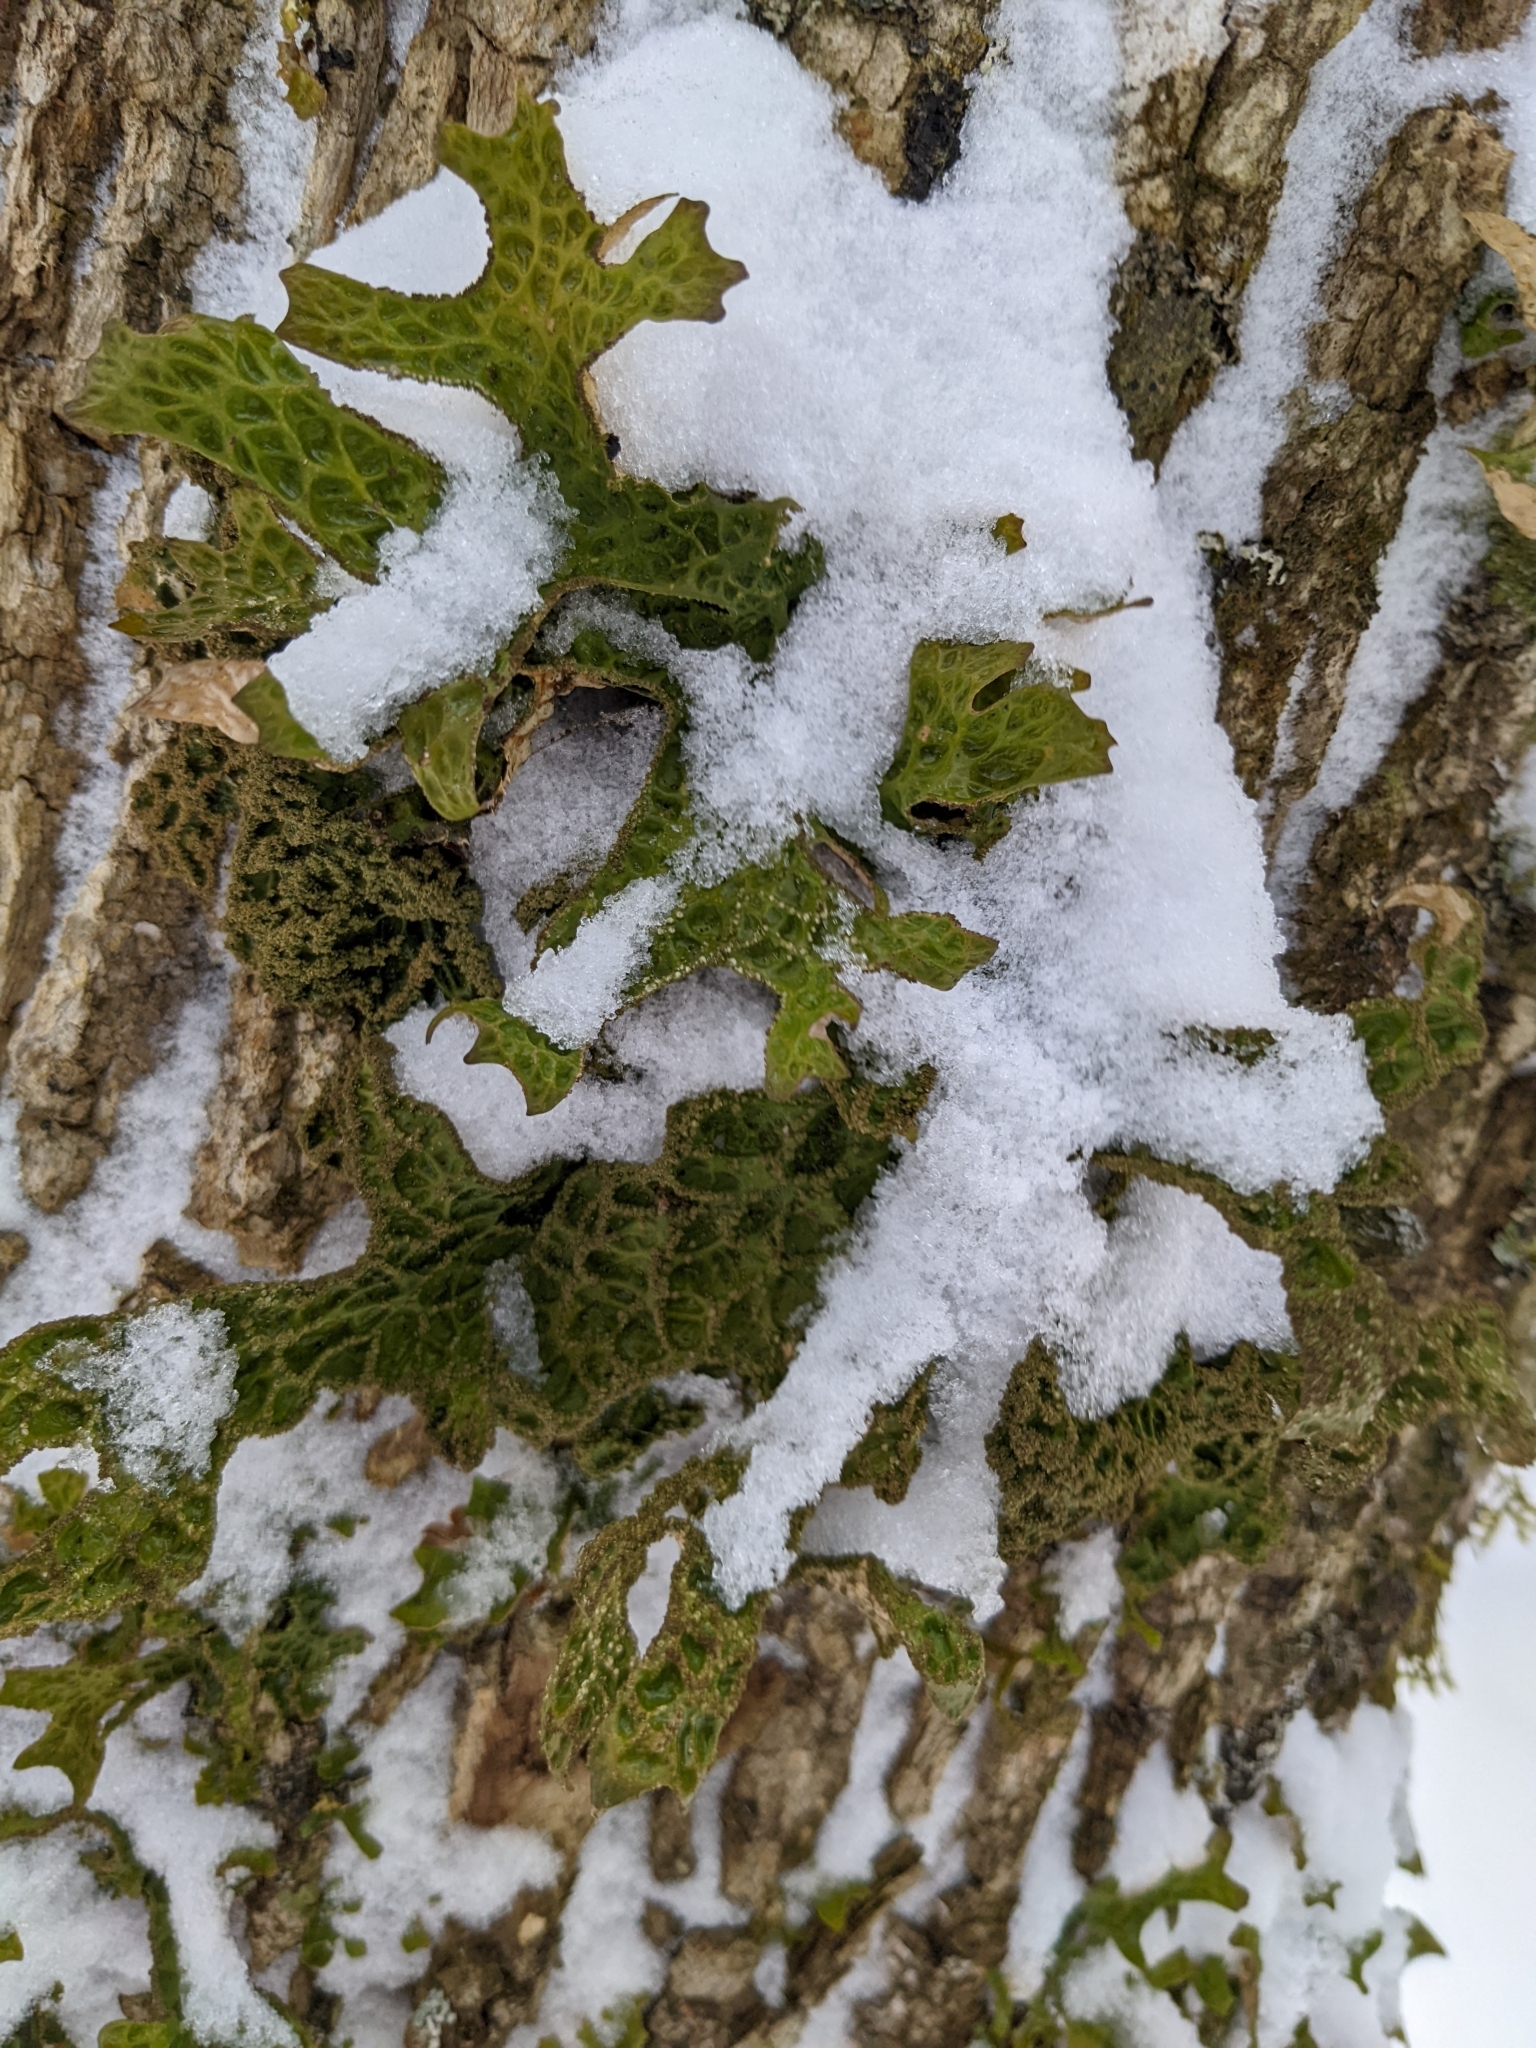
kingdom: Fungi
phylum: Ascomycota
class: Lecanoromycetes
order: Peltigerales
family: Lobariaceae
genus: Lobaria
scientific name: Lobaria pulmonaria
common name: Lungwort
